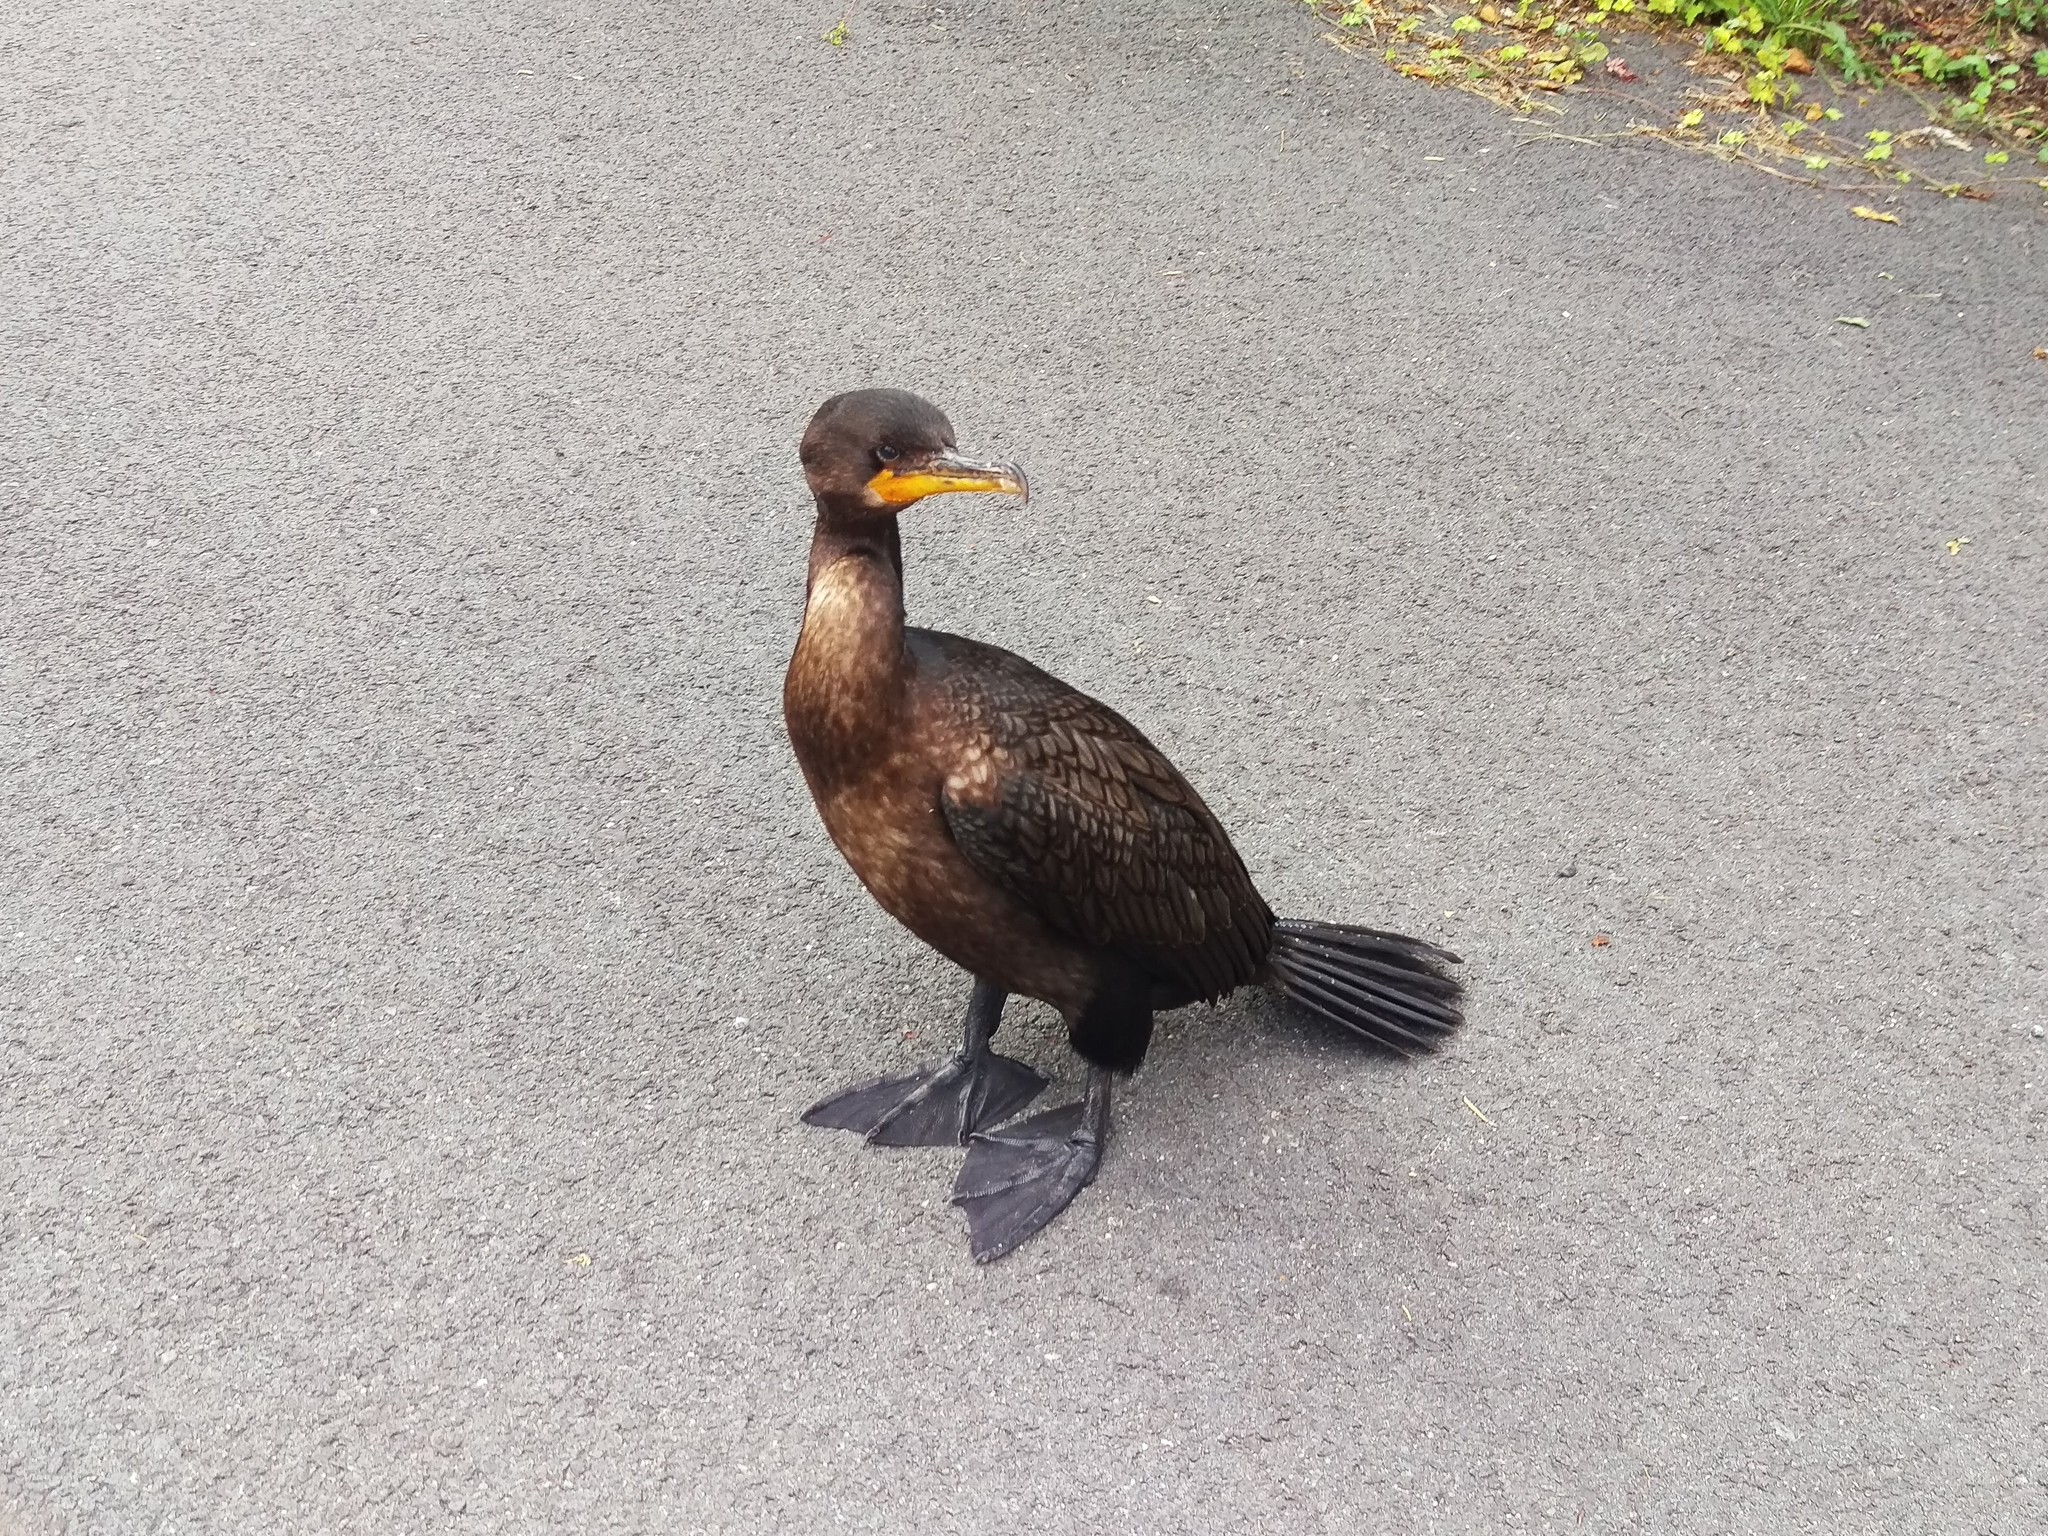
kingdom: Animalia
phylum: Chordata
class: Aves
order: Suliformes
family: Phalacrocoracidae
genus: Phalacrocorax
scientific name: Phalacrocorax auritus
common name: Double-crested cormorant
